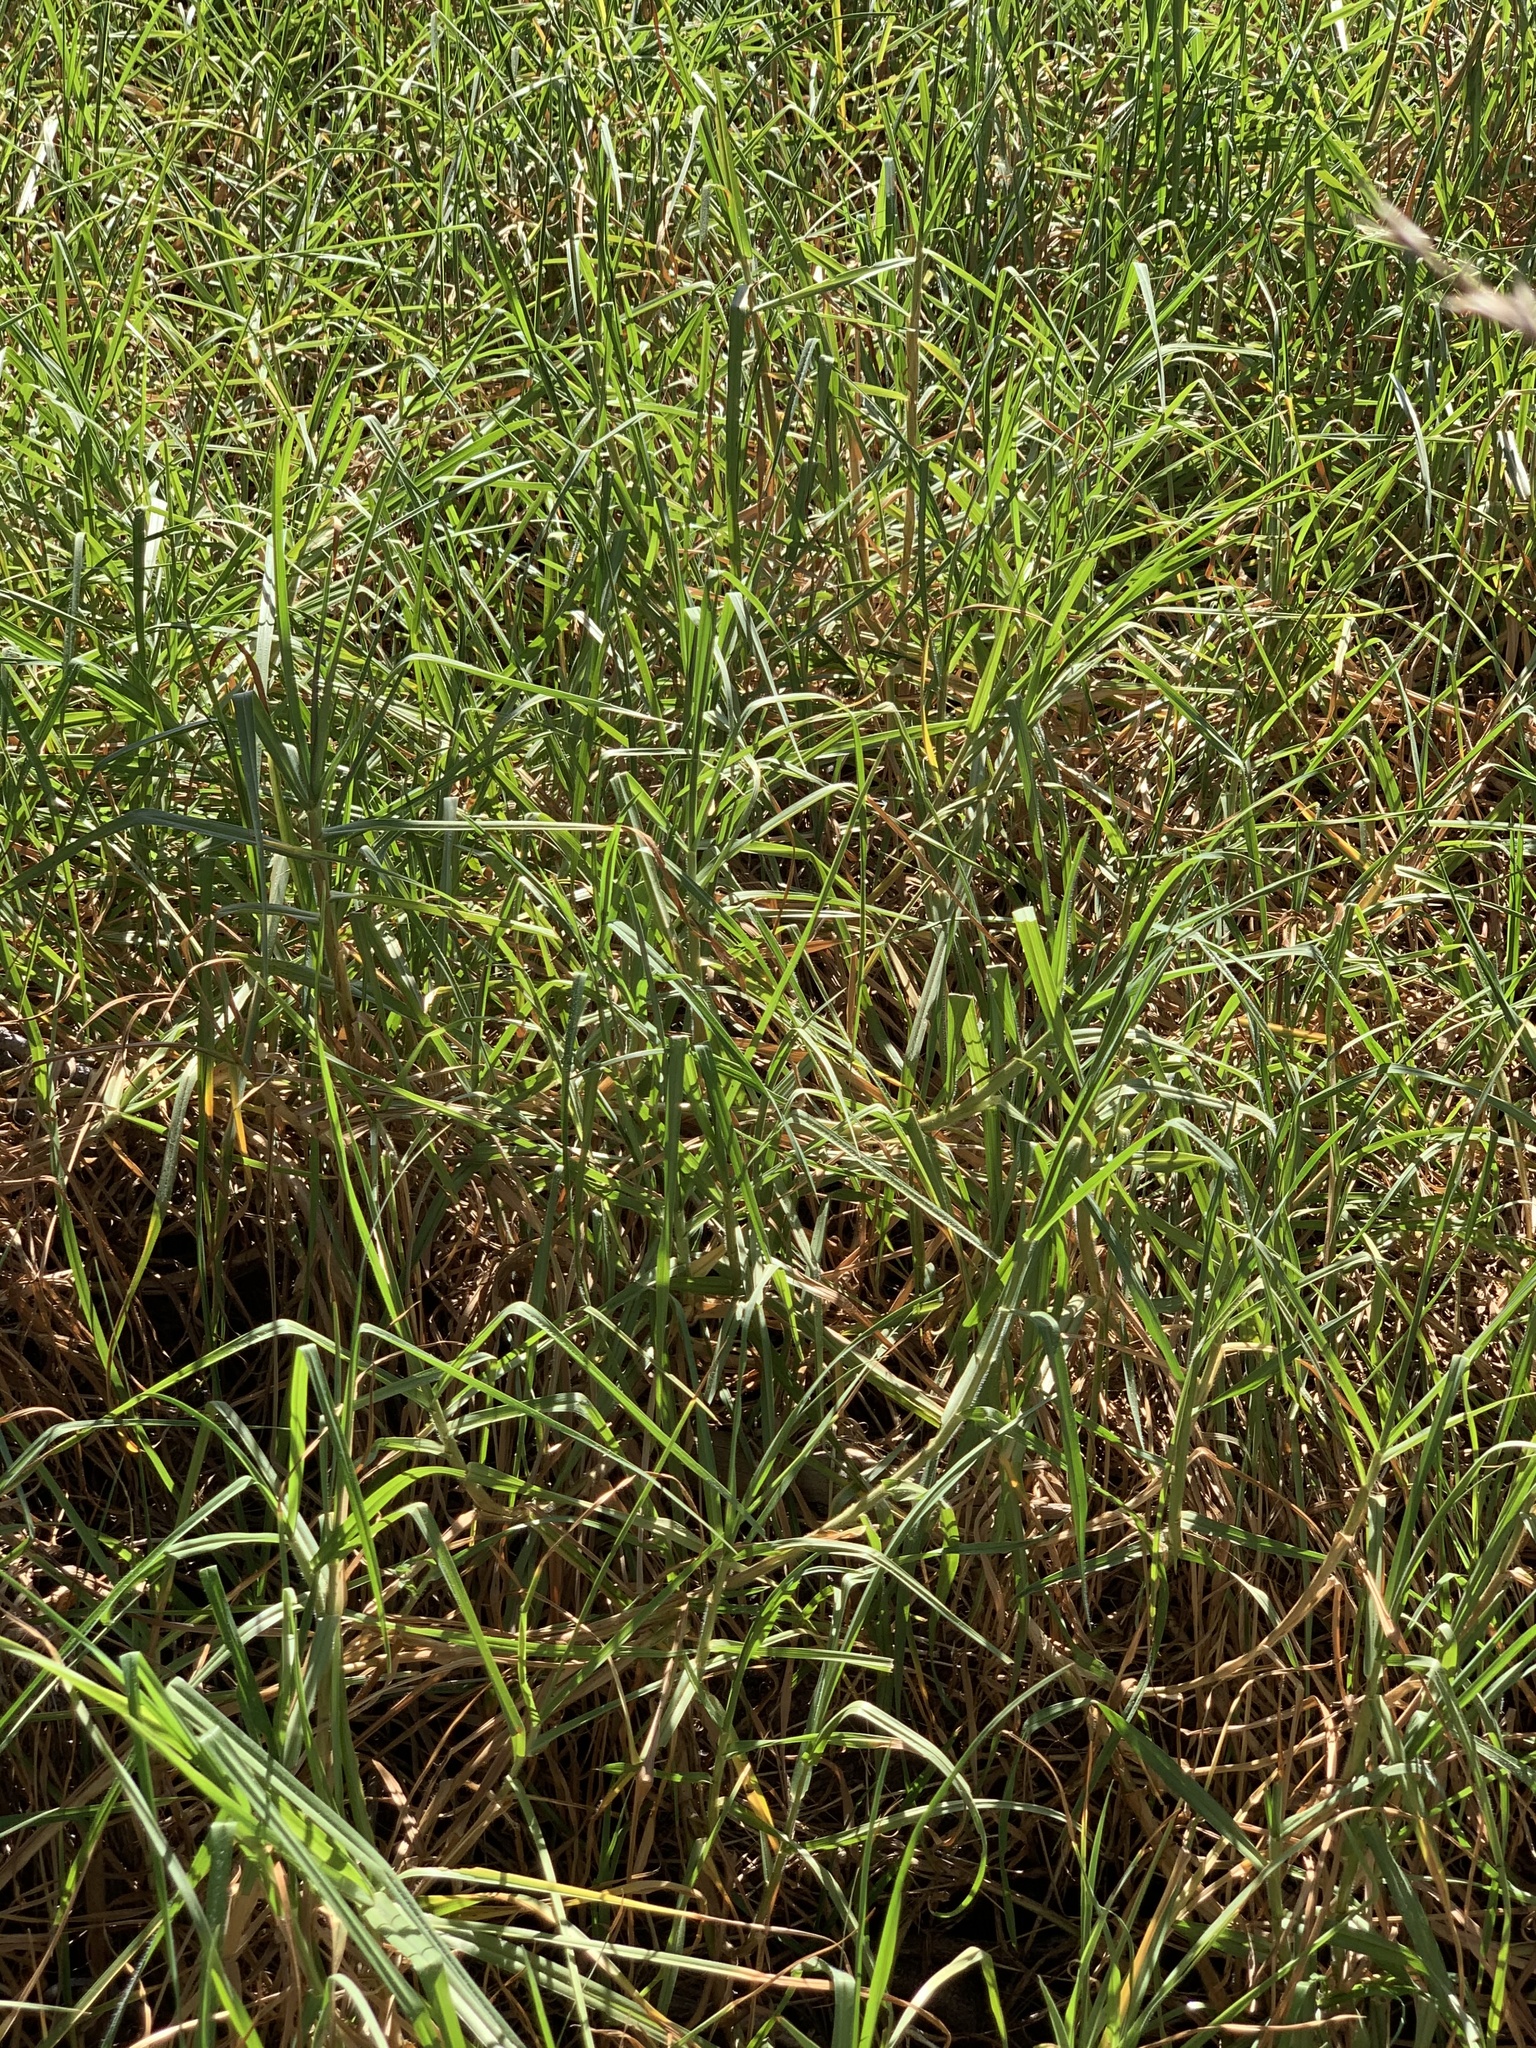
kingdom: Plantae
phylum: Tracheophyta
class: Liliopsida
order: Poales
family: Poaceae
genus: Cenchrus
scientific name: Cenchrus clandestinus
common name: Kikuyugrass
